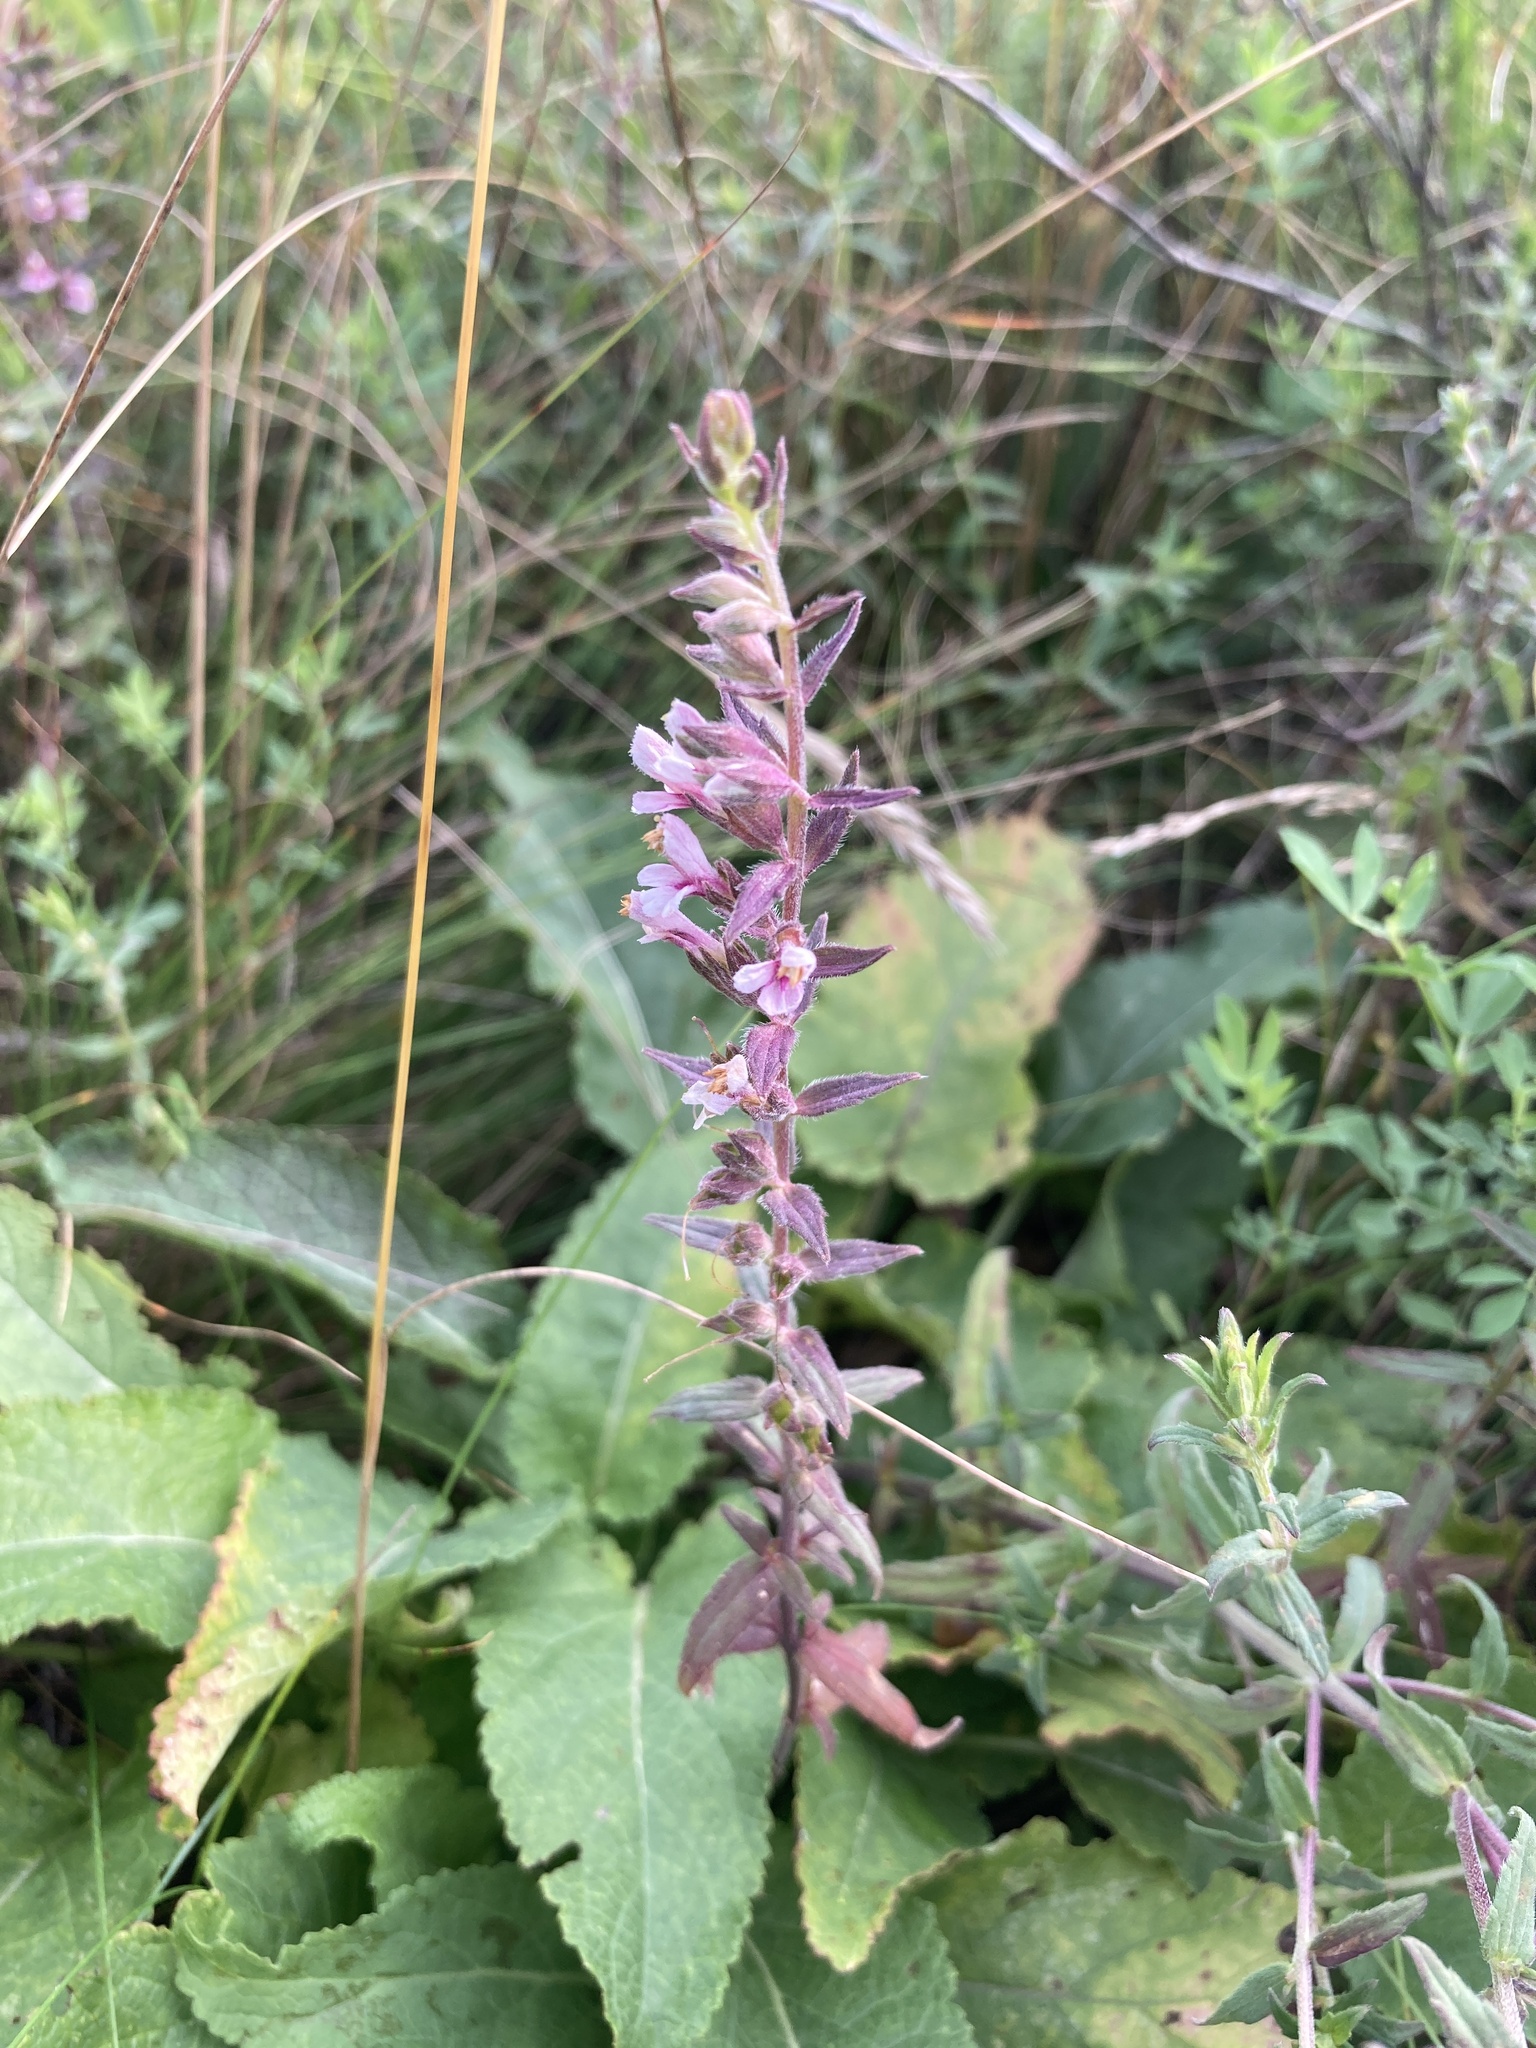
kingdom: Plantae
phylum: Tracheophyta
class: Magnoliopsida
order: Lamiales
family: Orobanchaceae
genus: Odontites
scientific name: Odontites vulgaris
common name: Broomrape
